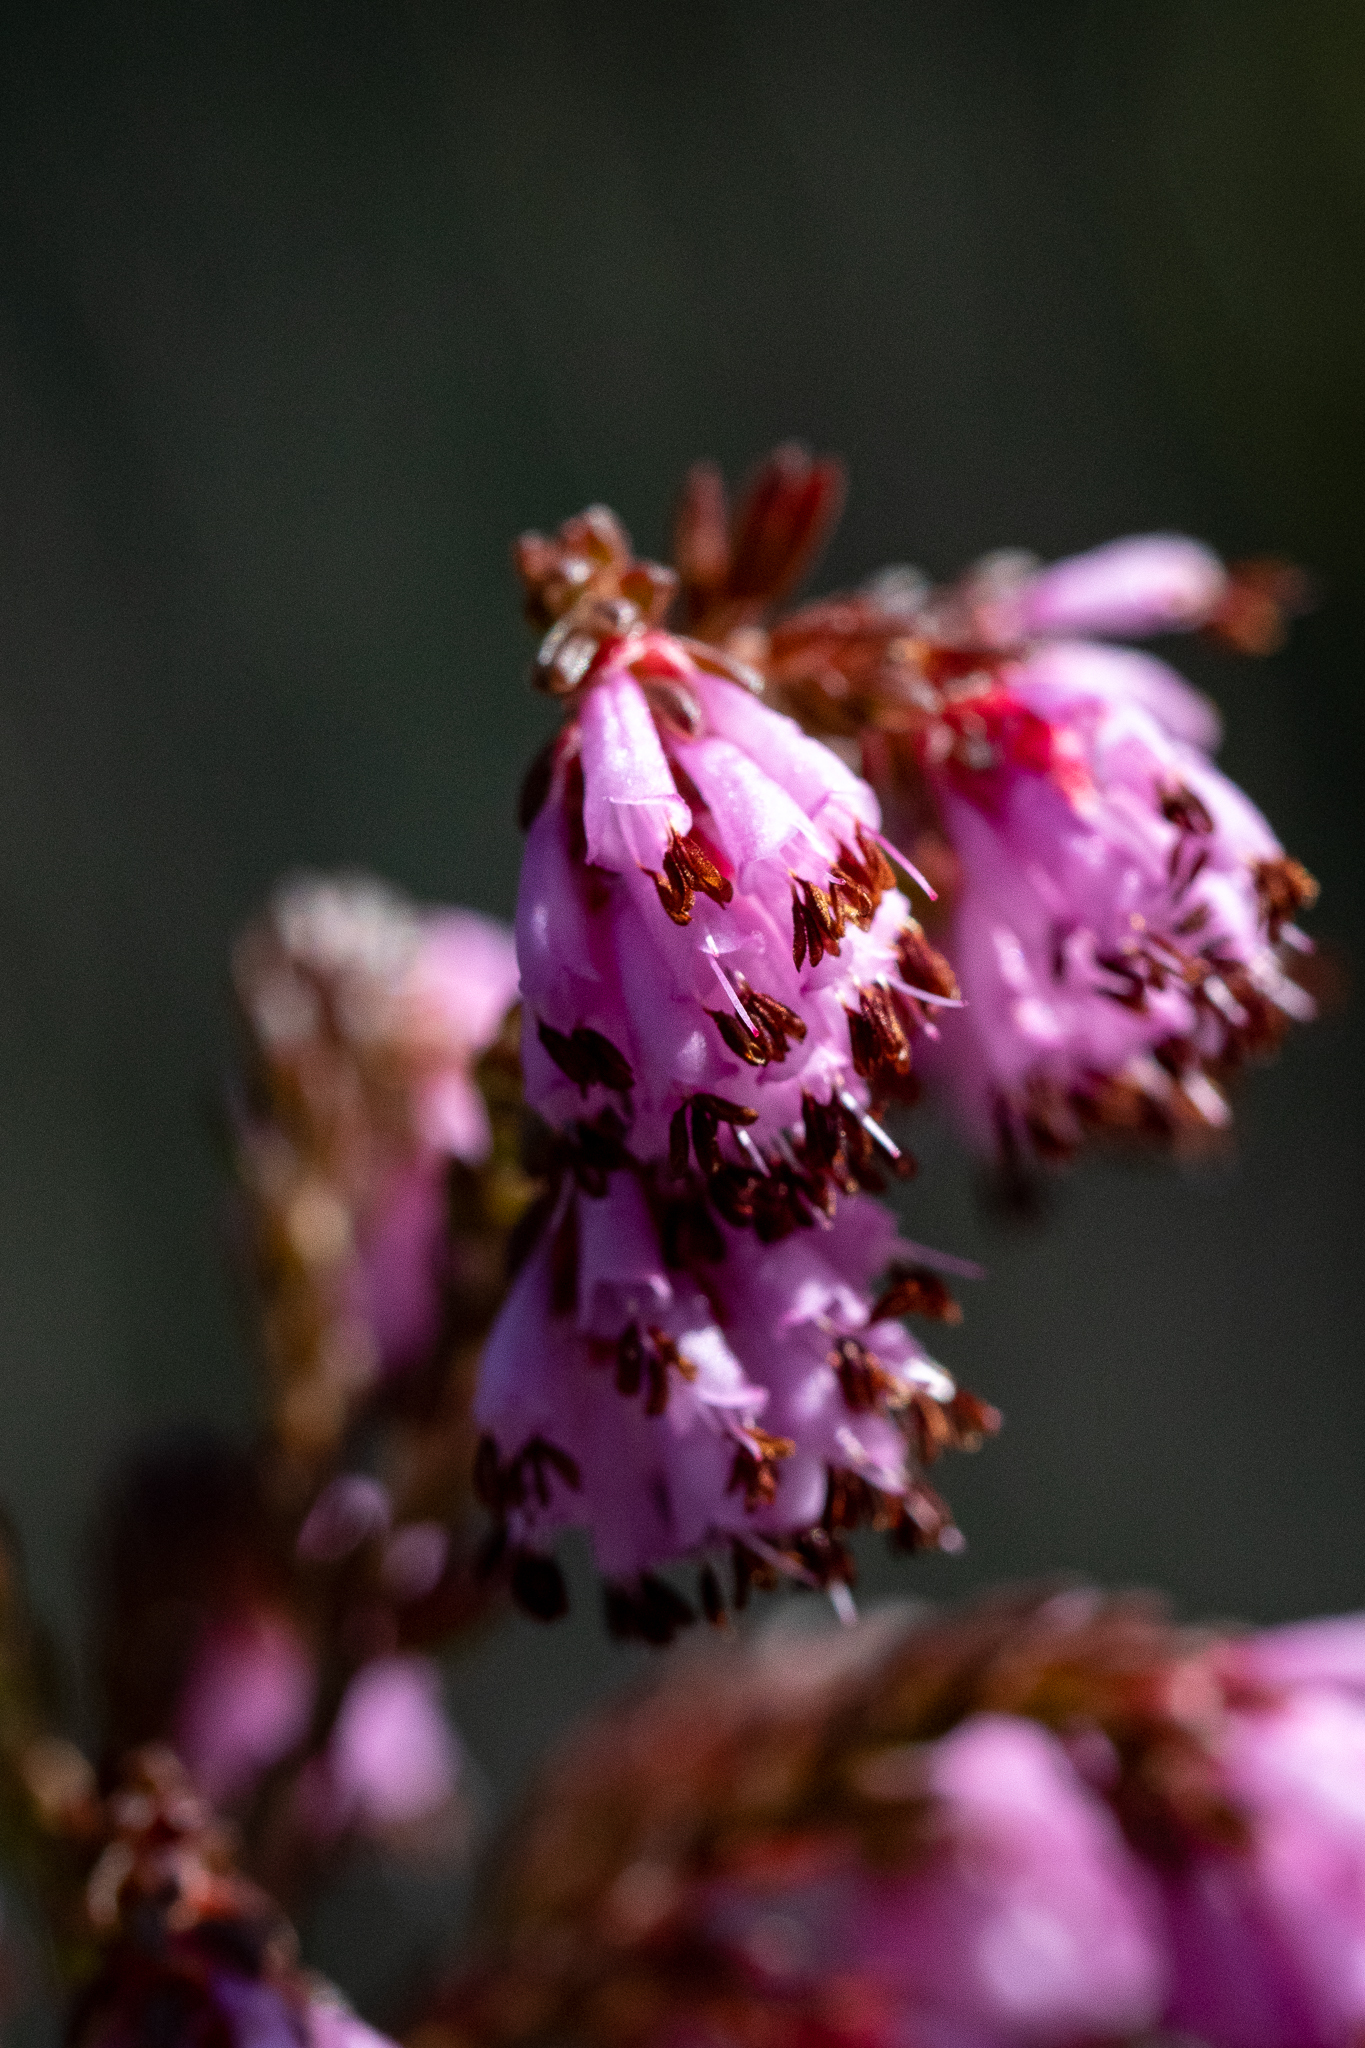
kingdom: Plantae
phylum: Tracheophyta
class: Magnoliopsida
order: Ericales
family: Ericaceae
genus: Erica
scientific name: Erica labialis
